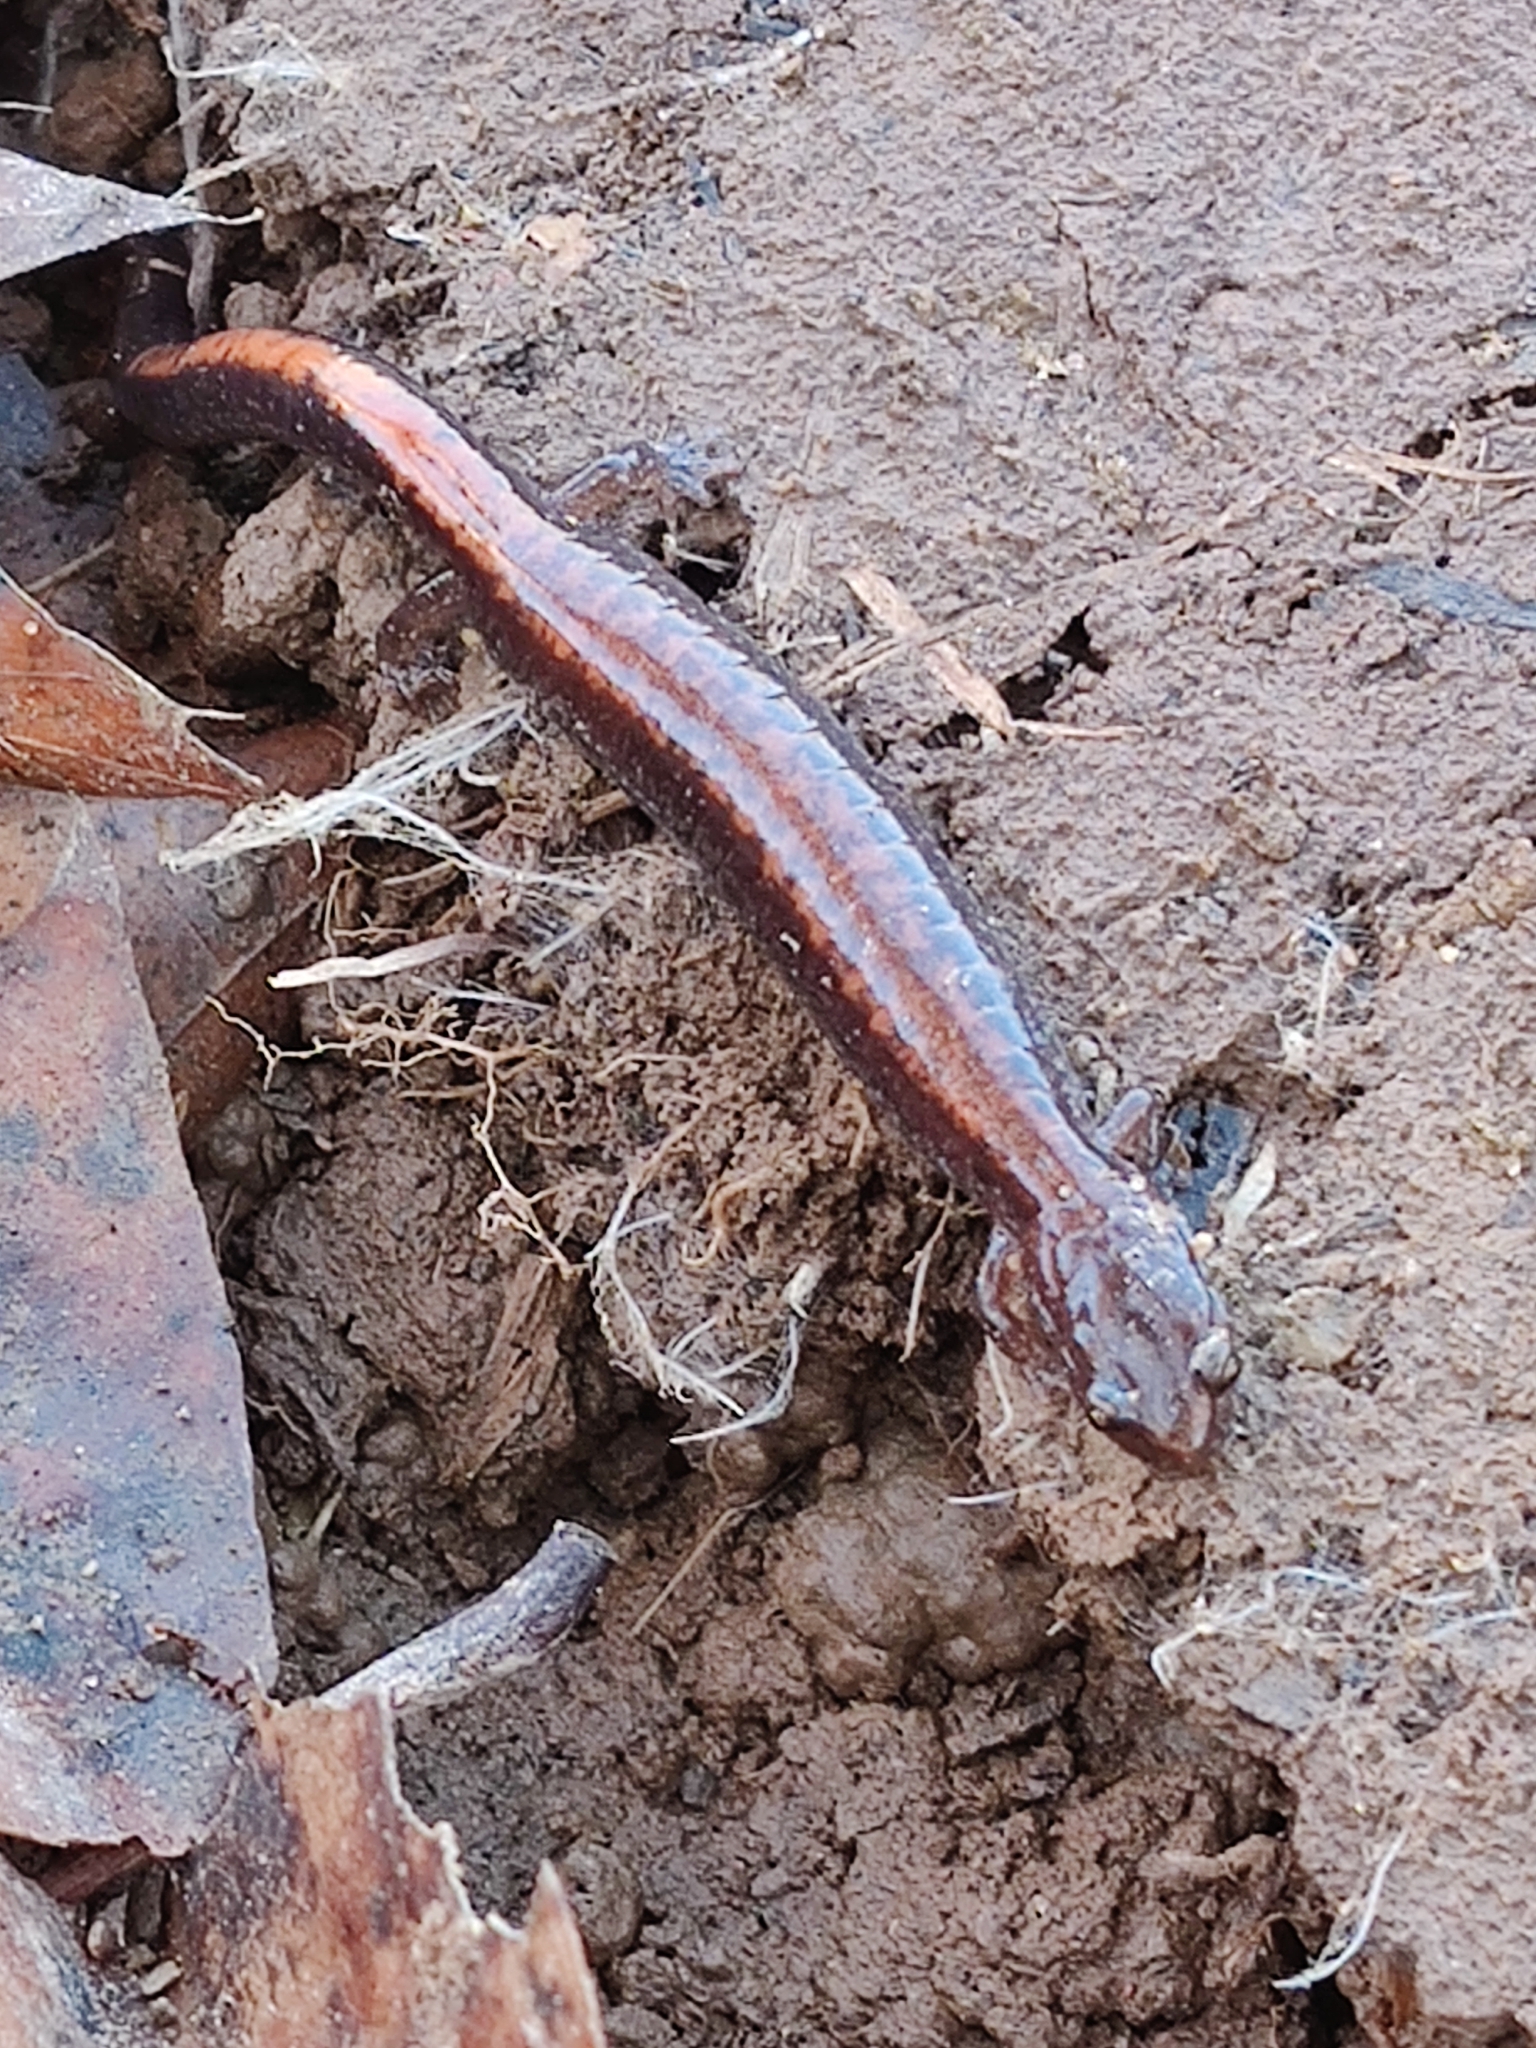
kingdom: Animalia
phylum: Chordata
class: Amphibia
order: Caudata
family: Plethodontidae
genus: Plethodon
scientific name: Plethodon cinereus
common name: Redback salamander
